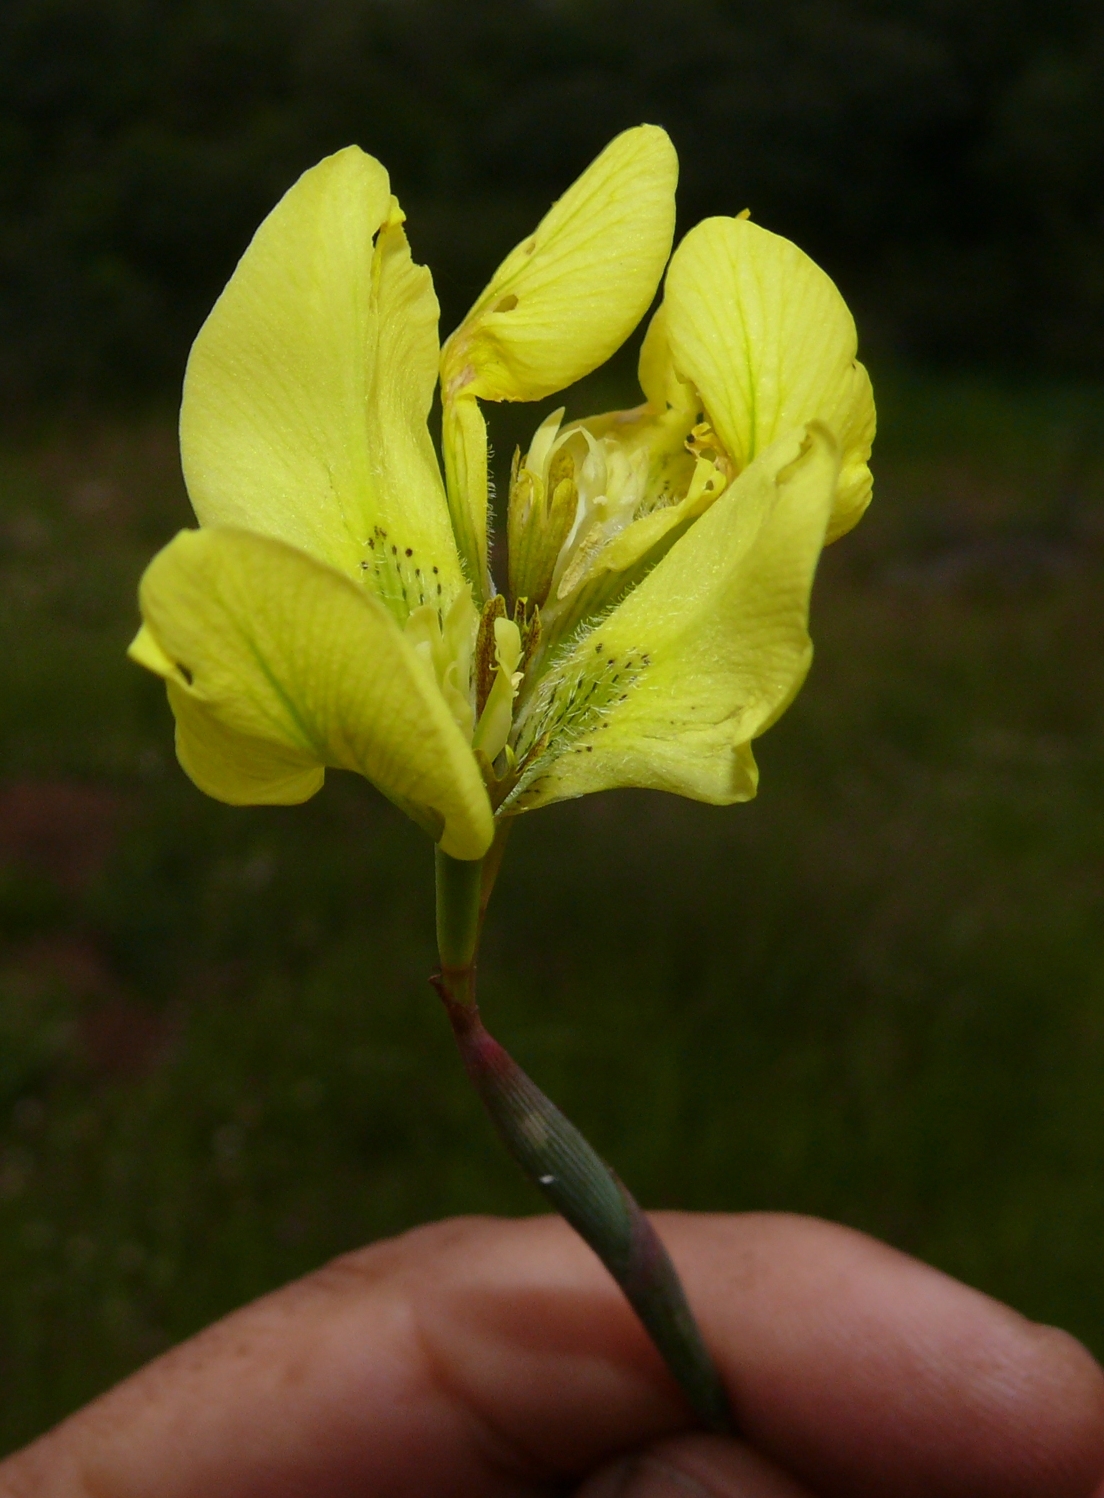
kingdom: Plantae
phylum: Tracheophyta
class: Liliopsida
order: Asparagales
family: Iridaceae
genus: Moraea
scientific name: Moraea bellendenii
